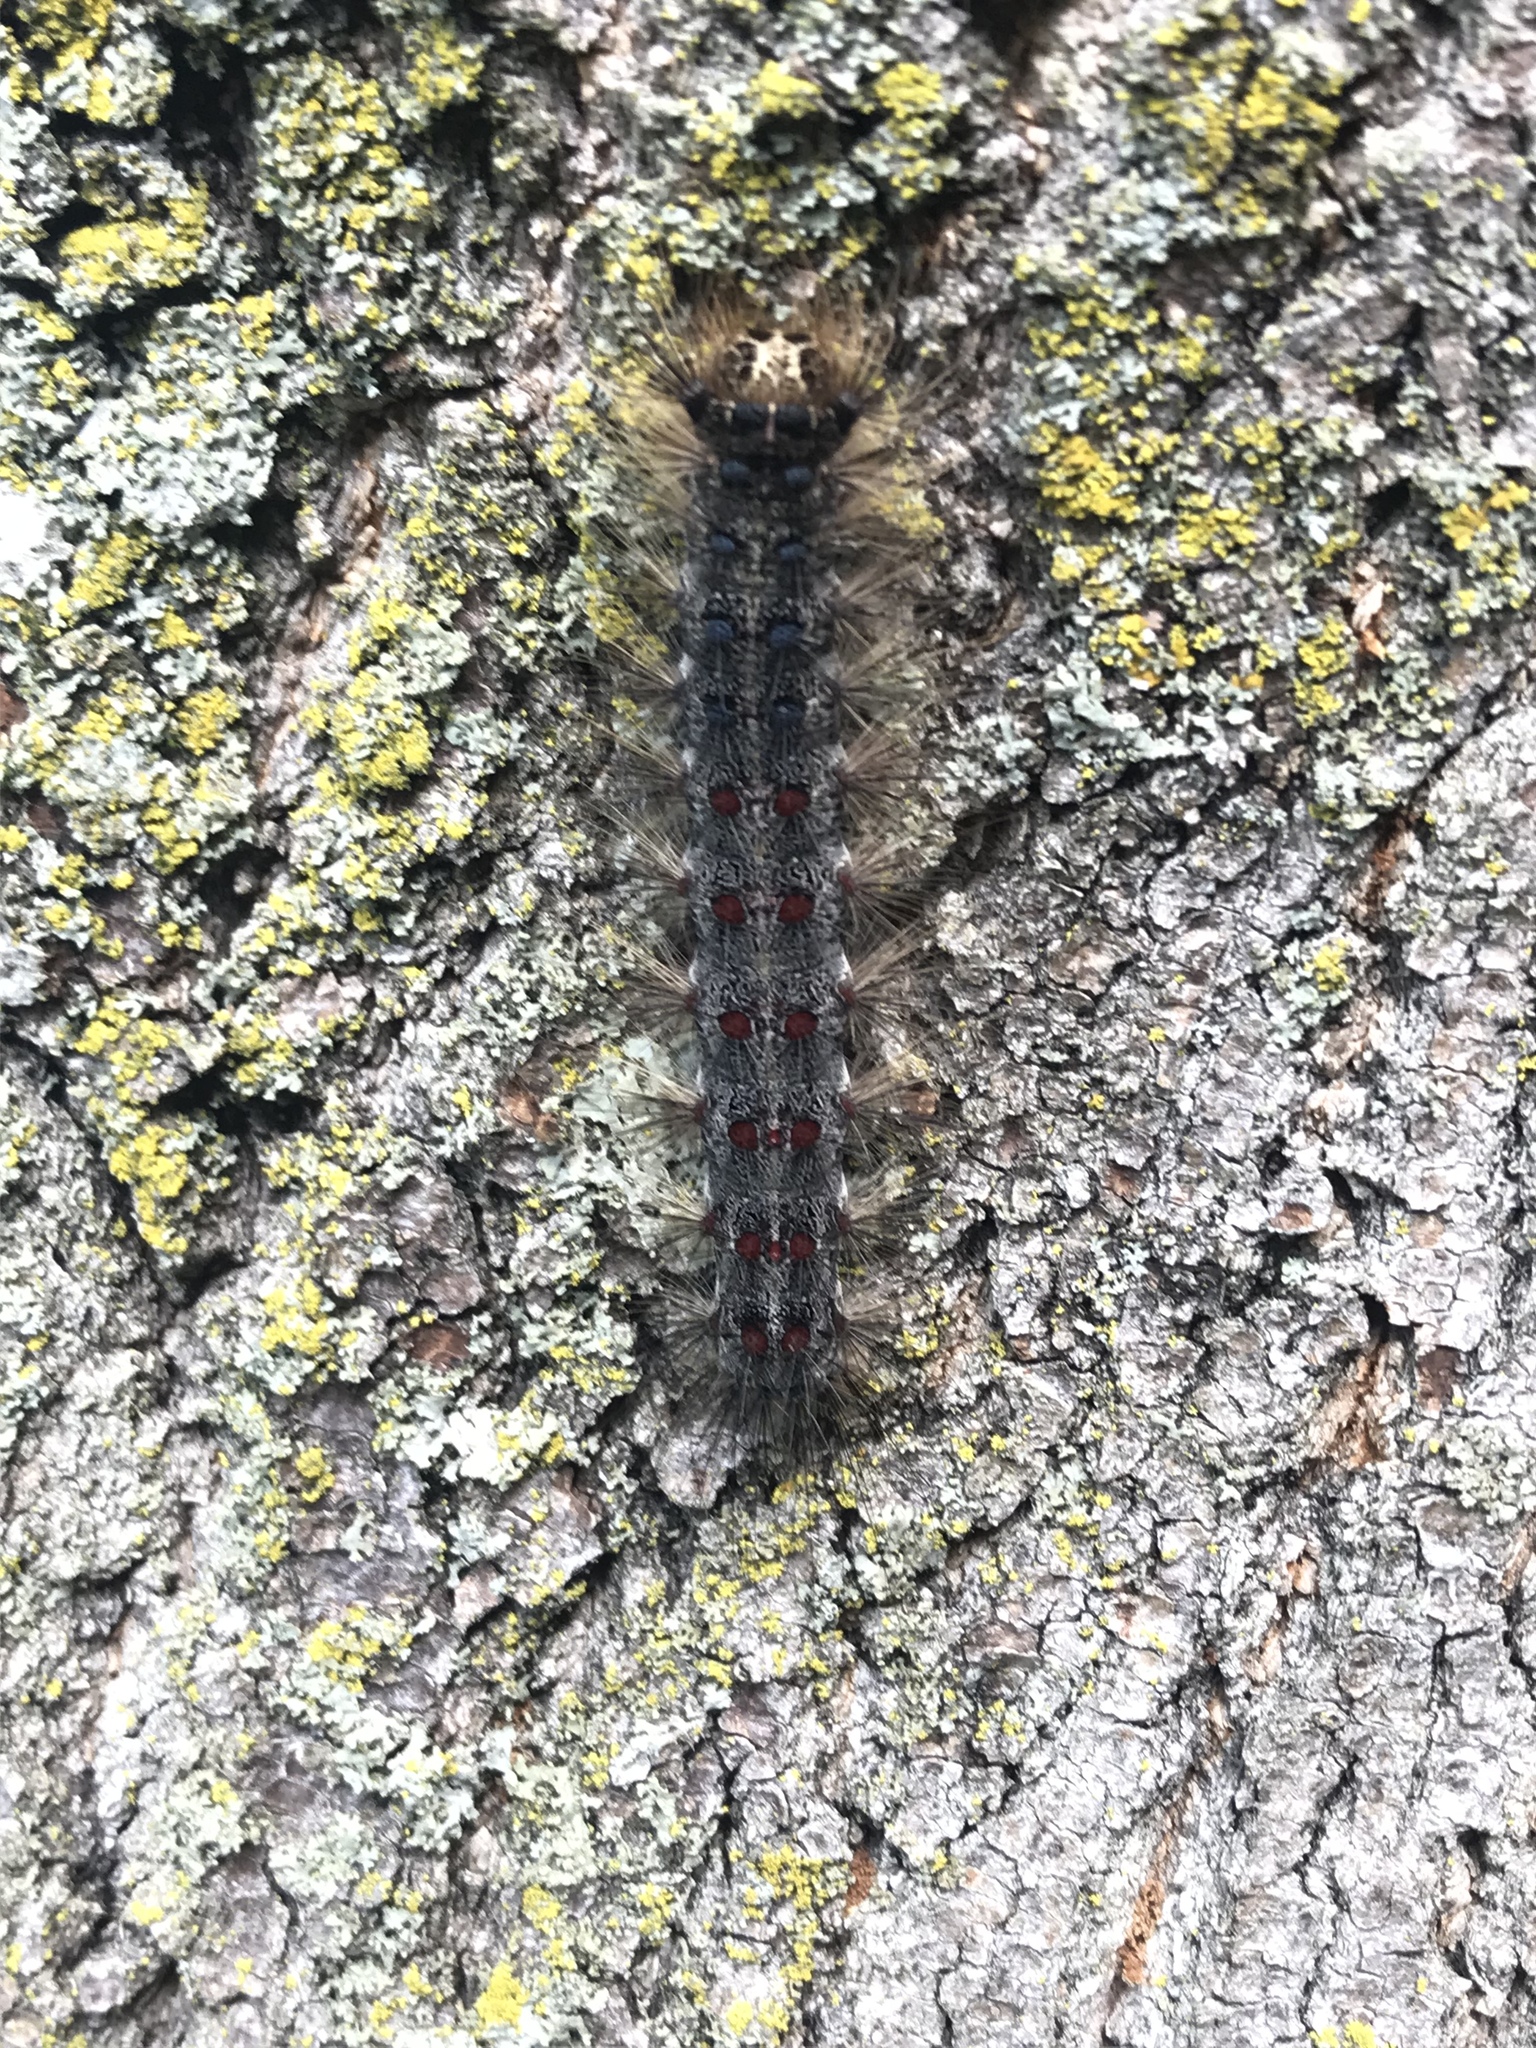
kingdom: Animalia
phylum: Arthropoda
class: Insecta
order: Lepidoptera
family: Erebidae
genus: Lymantria
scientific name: Lymantria dispar
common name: Gypsy moth
